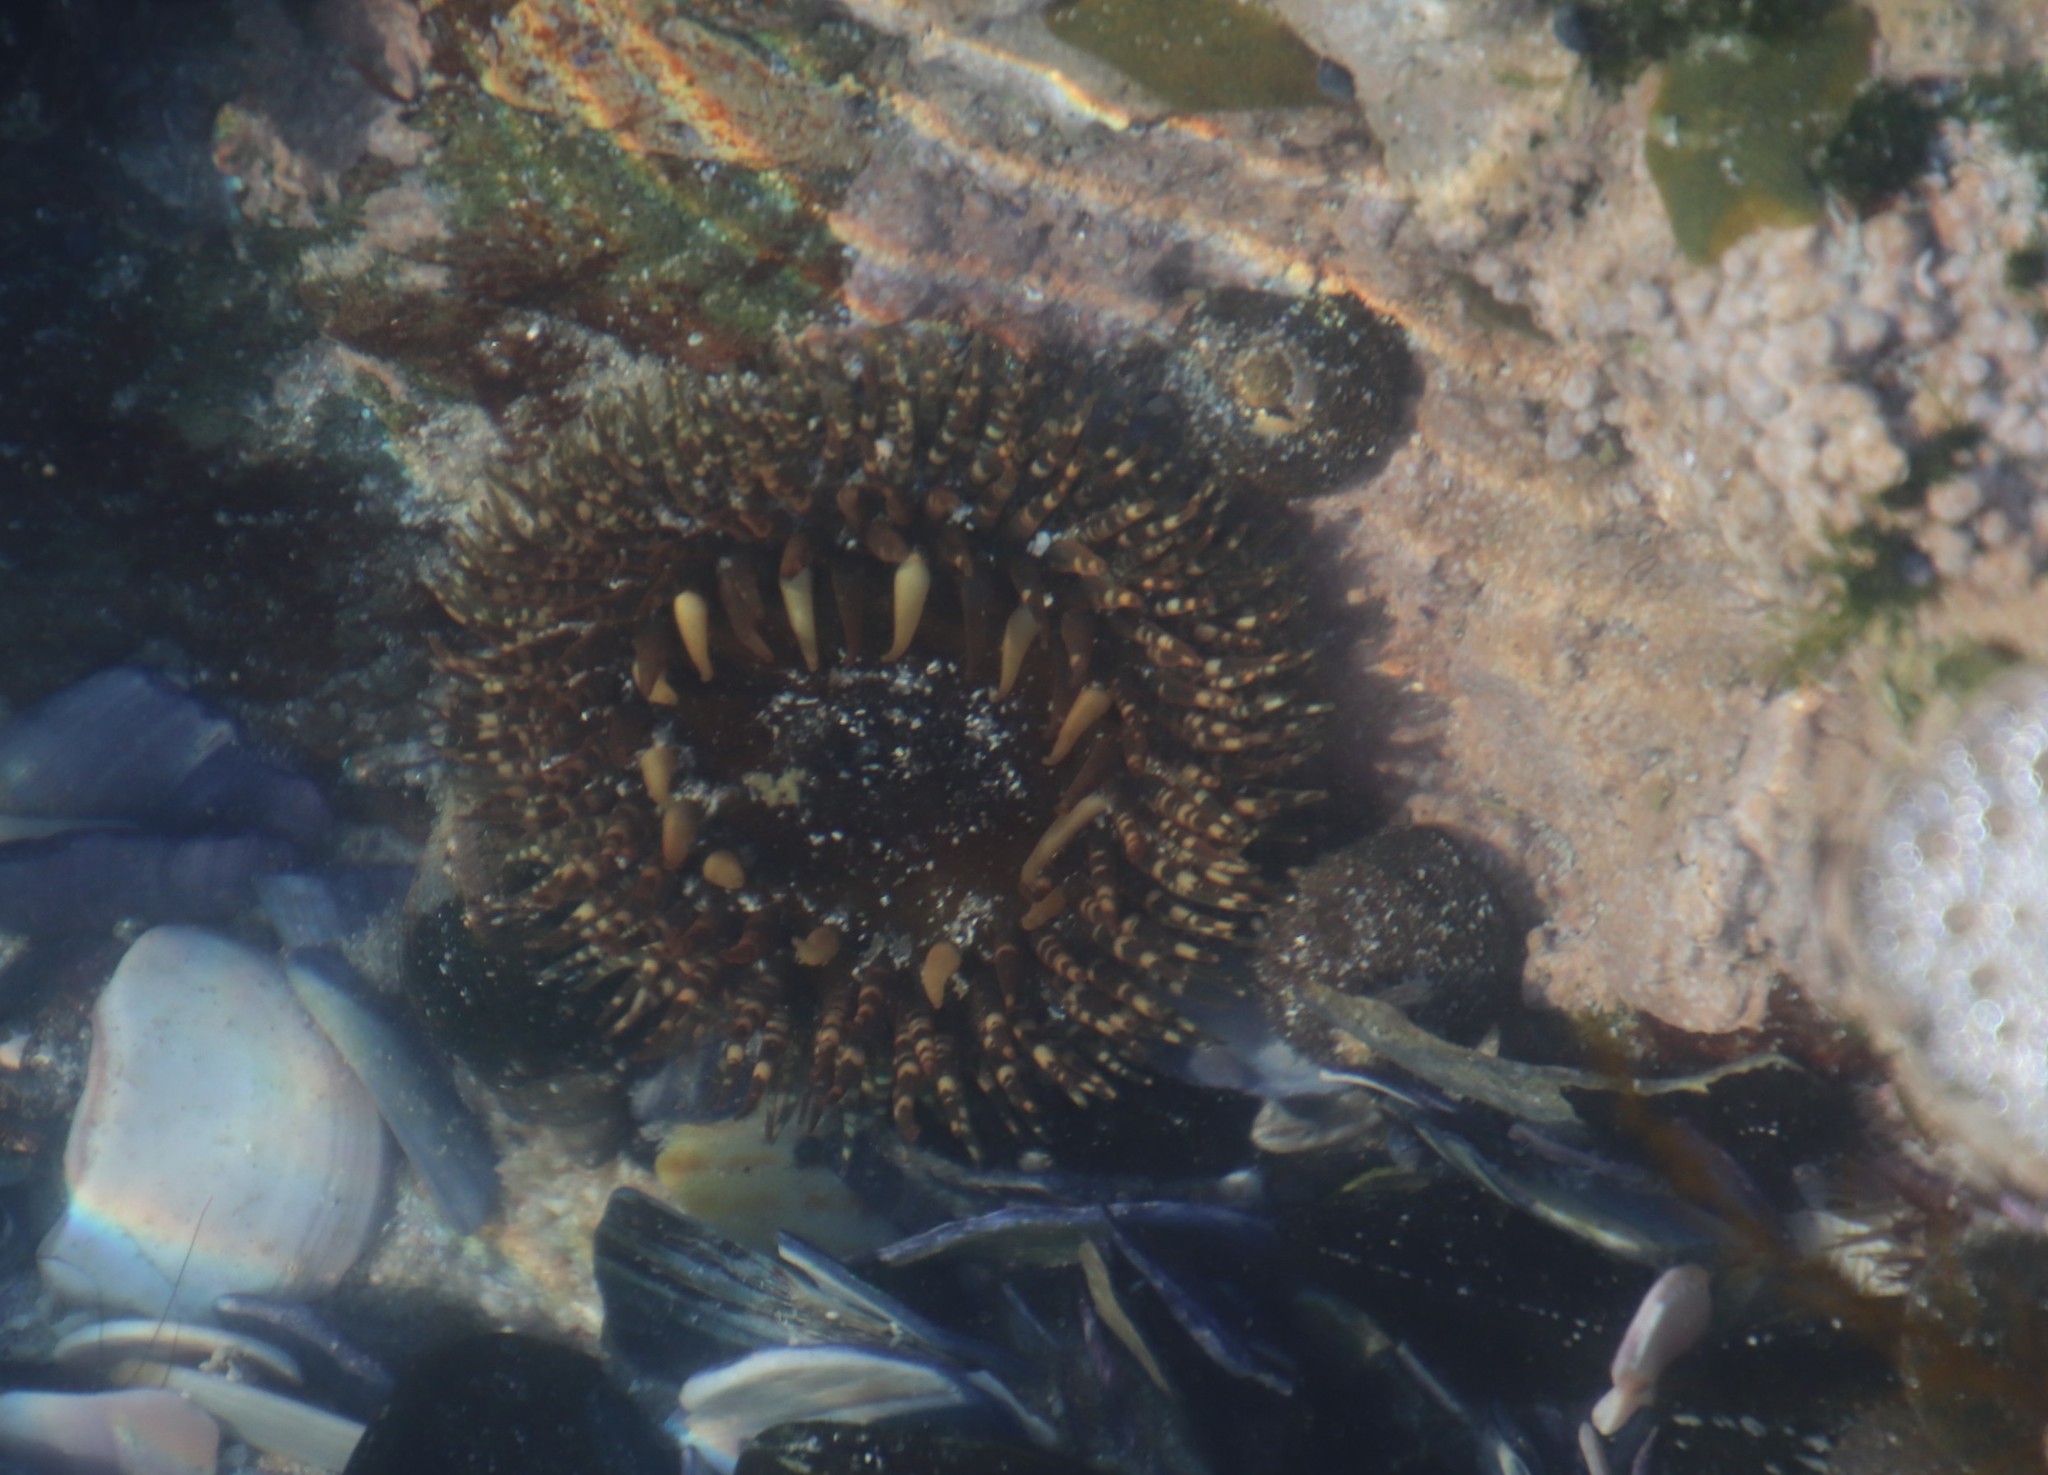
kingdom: Animalia
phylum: Cnidaria
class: Anthozoa
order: Actiniaria
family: Actiniidae
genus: Bunodactis
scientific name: Bunodactis reynaudi
